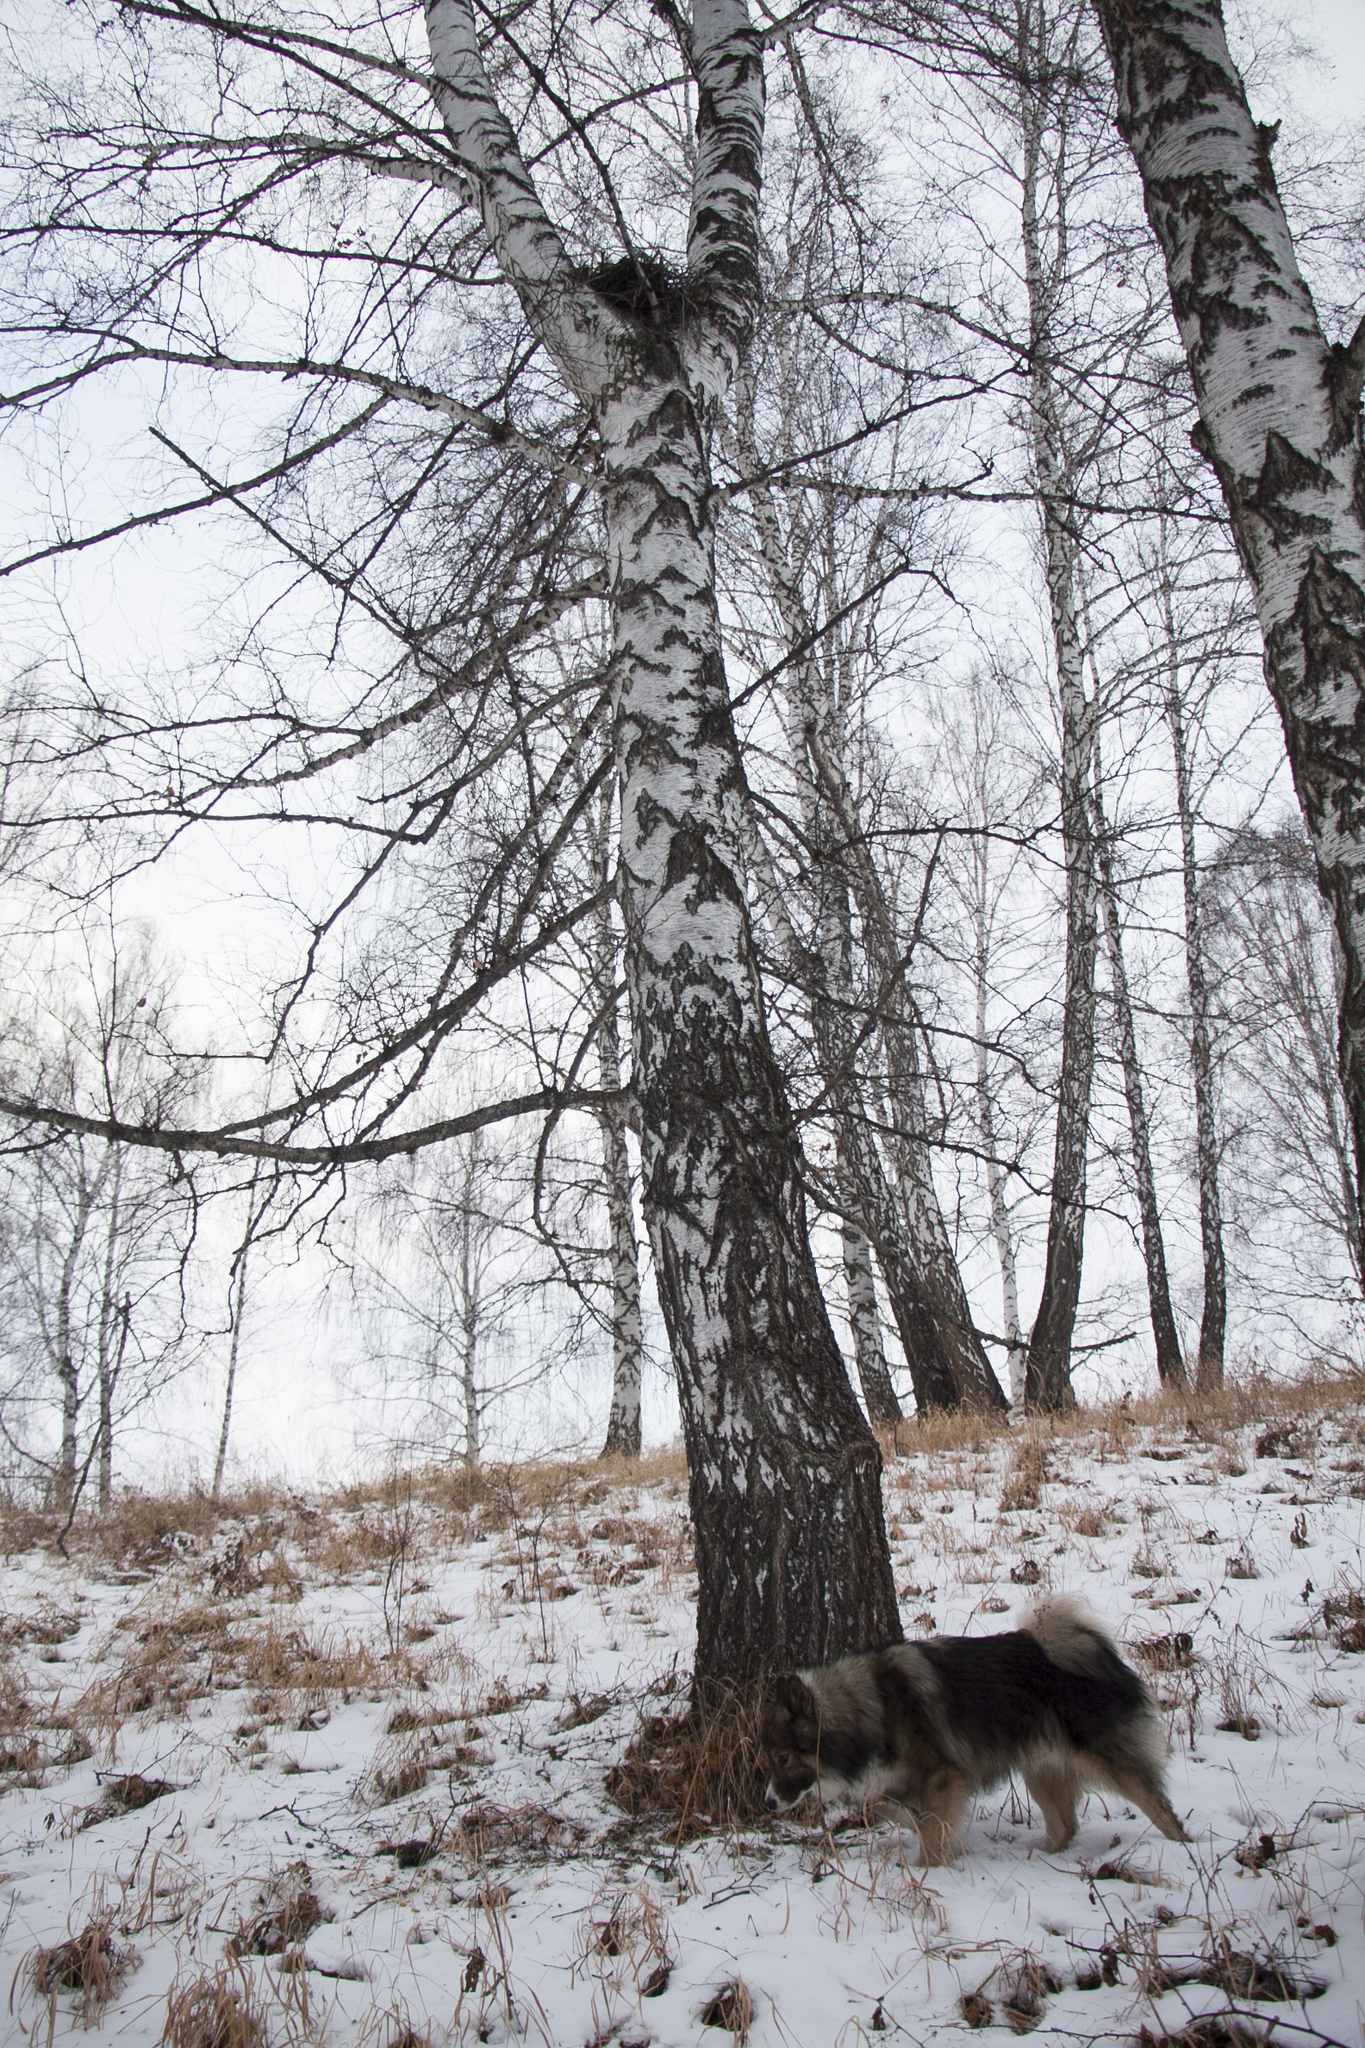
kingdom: Plantae
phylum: Tracheophyta
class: Magnoliopsida
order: Fagales
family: Betulaceae
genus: Betula
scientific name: Betula pendula
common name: Silver birch
